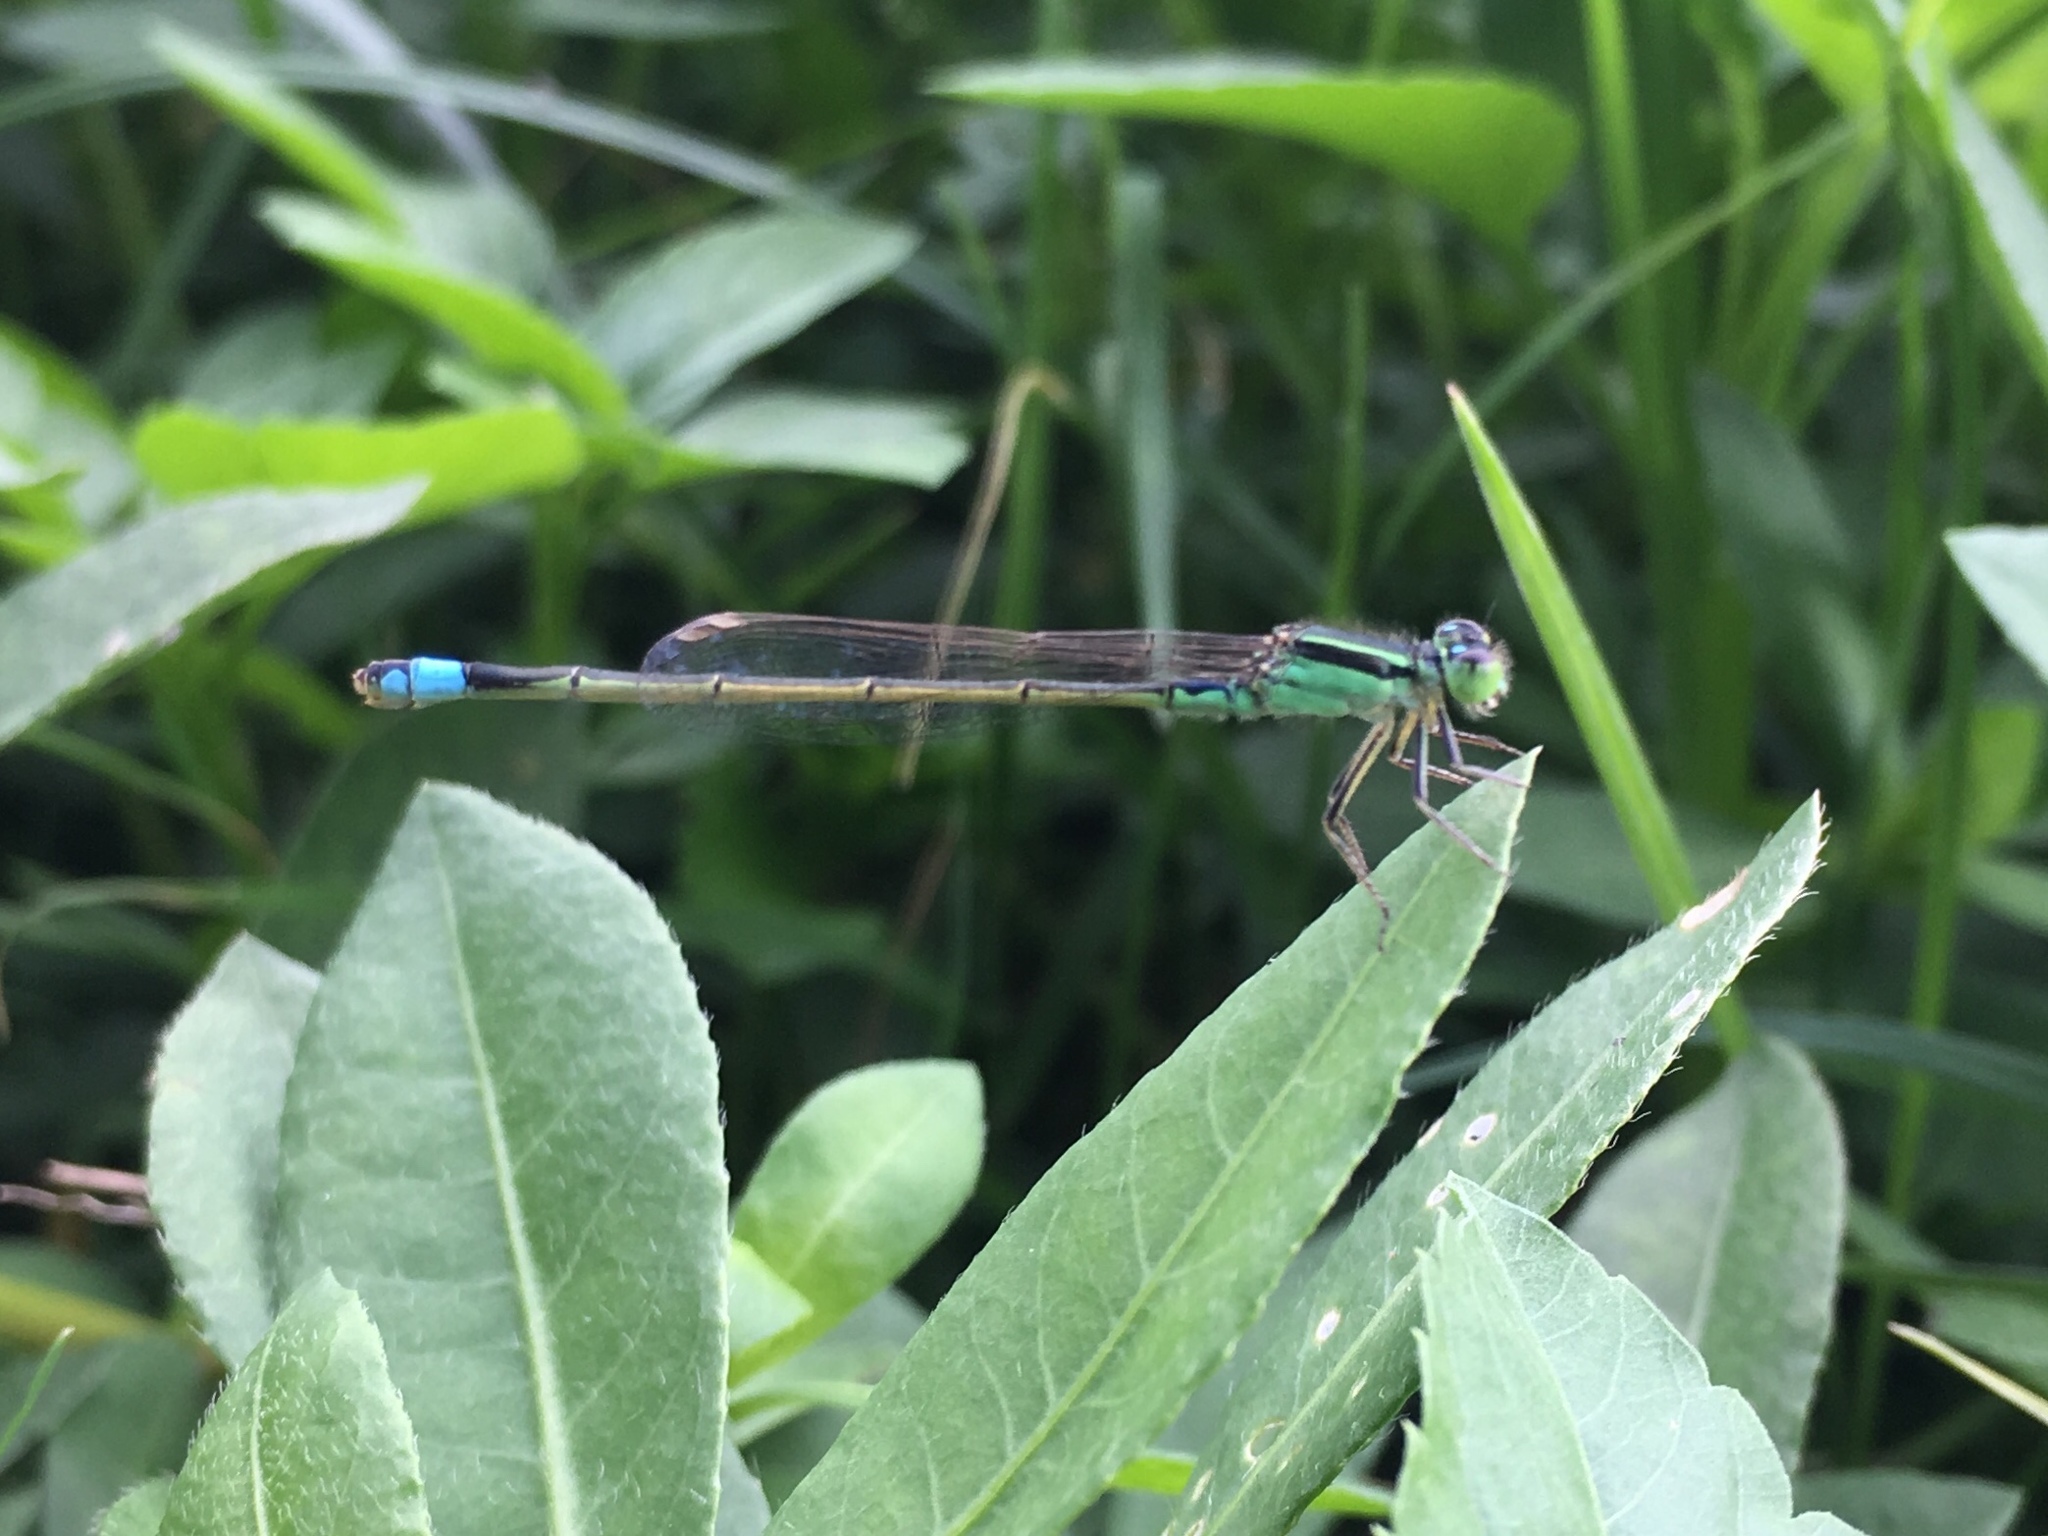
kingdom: Animalia
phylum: Arthropoda
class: Insecta
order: Odonata
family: Coenagrionidae
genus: Ischnura
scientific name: Ischnura senegalensis
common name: Tropical bluetail
